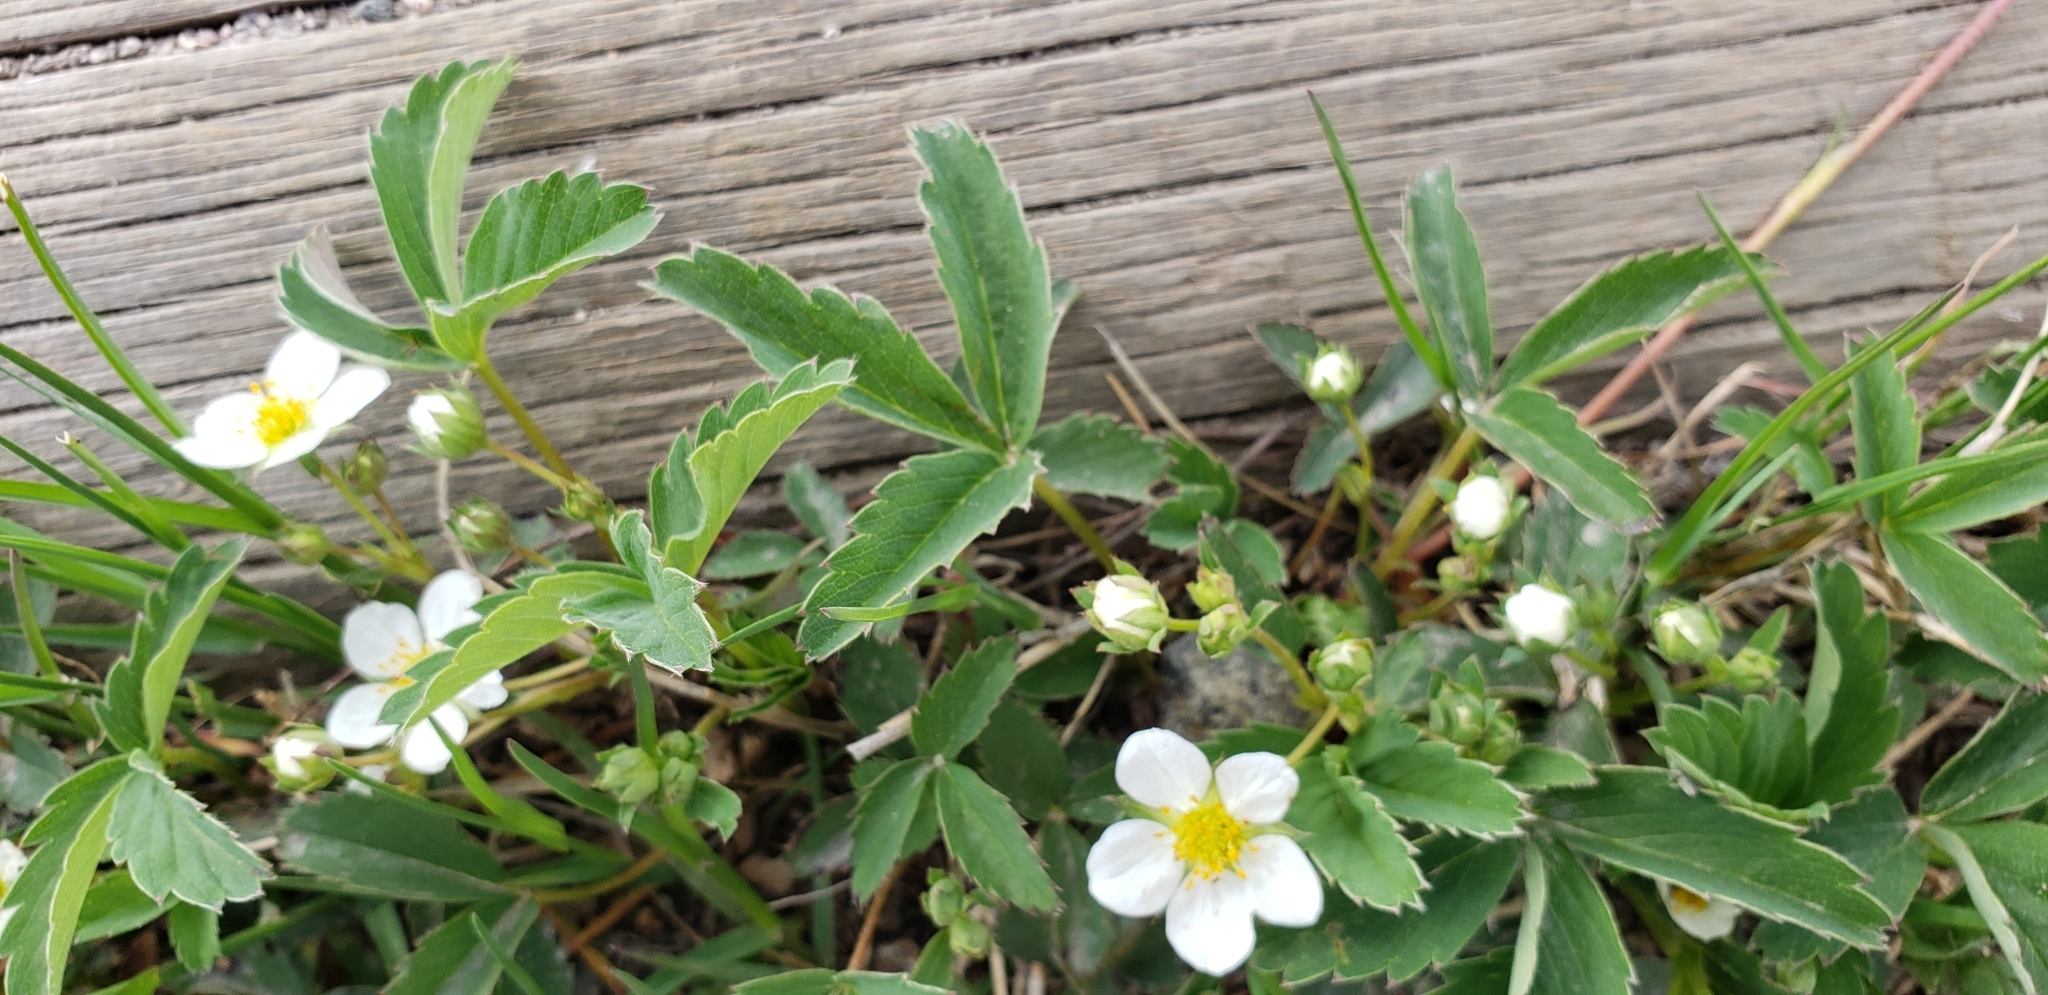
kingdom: Plantae
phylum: Tracheophyta
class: Magnoliopsida
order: Rosales
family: Rosaceae
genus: Fragaria
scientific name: Fragaria virginiana
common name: Thickleaved wild strawberry
